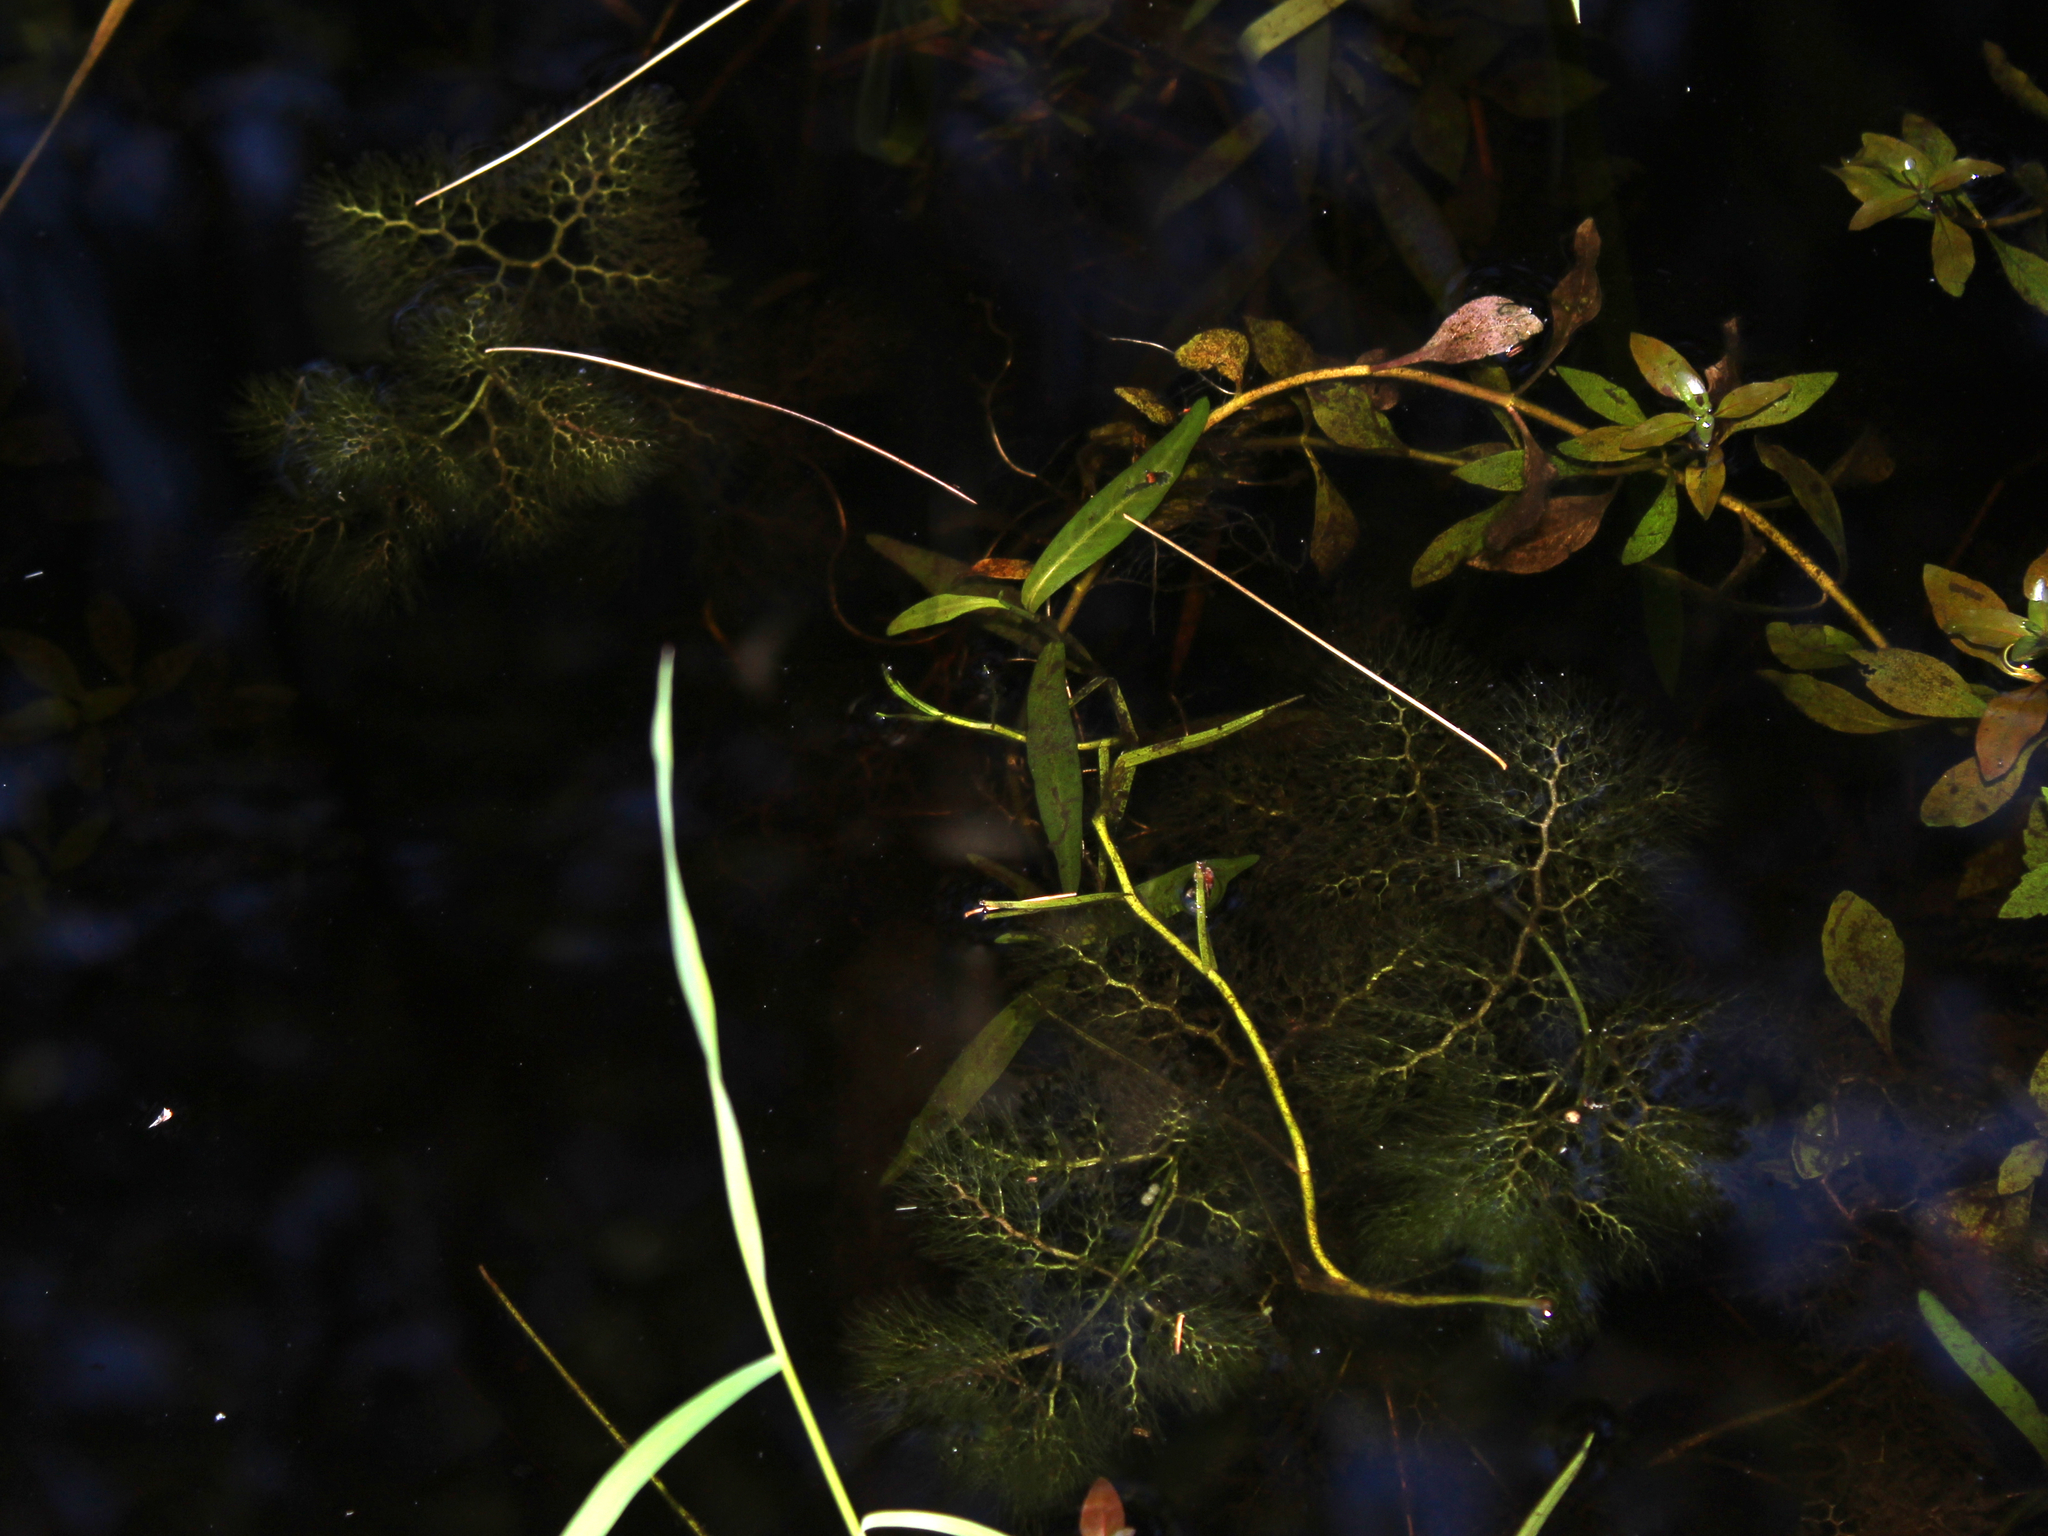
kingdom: Plantae
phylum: Tracheophyta
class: Magnoliopsida
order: Myrtales
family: Onagraceae
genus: Ludwigia
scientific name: Ludwigia palustris
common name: Hampshire-purslane
